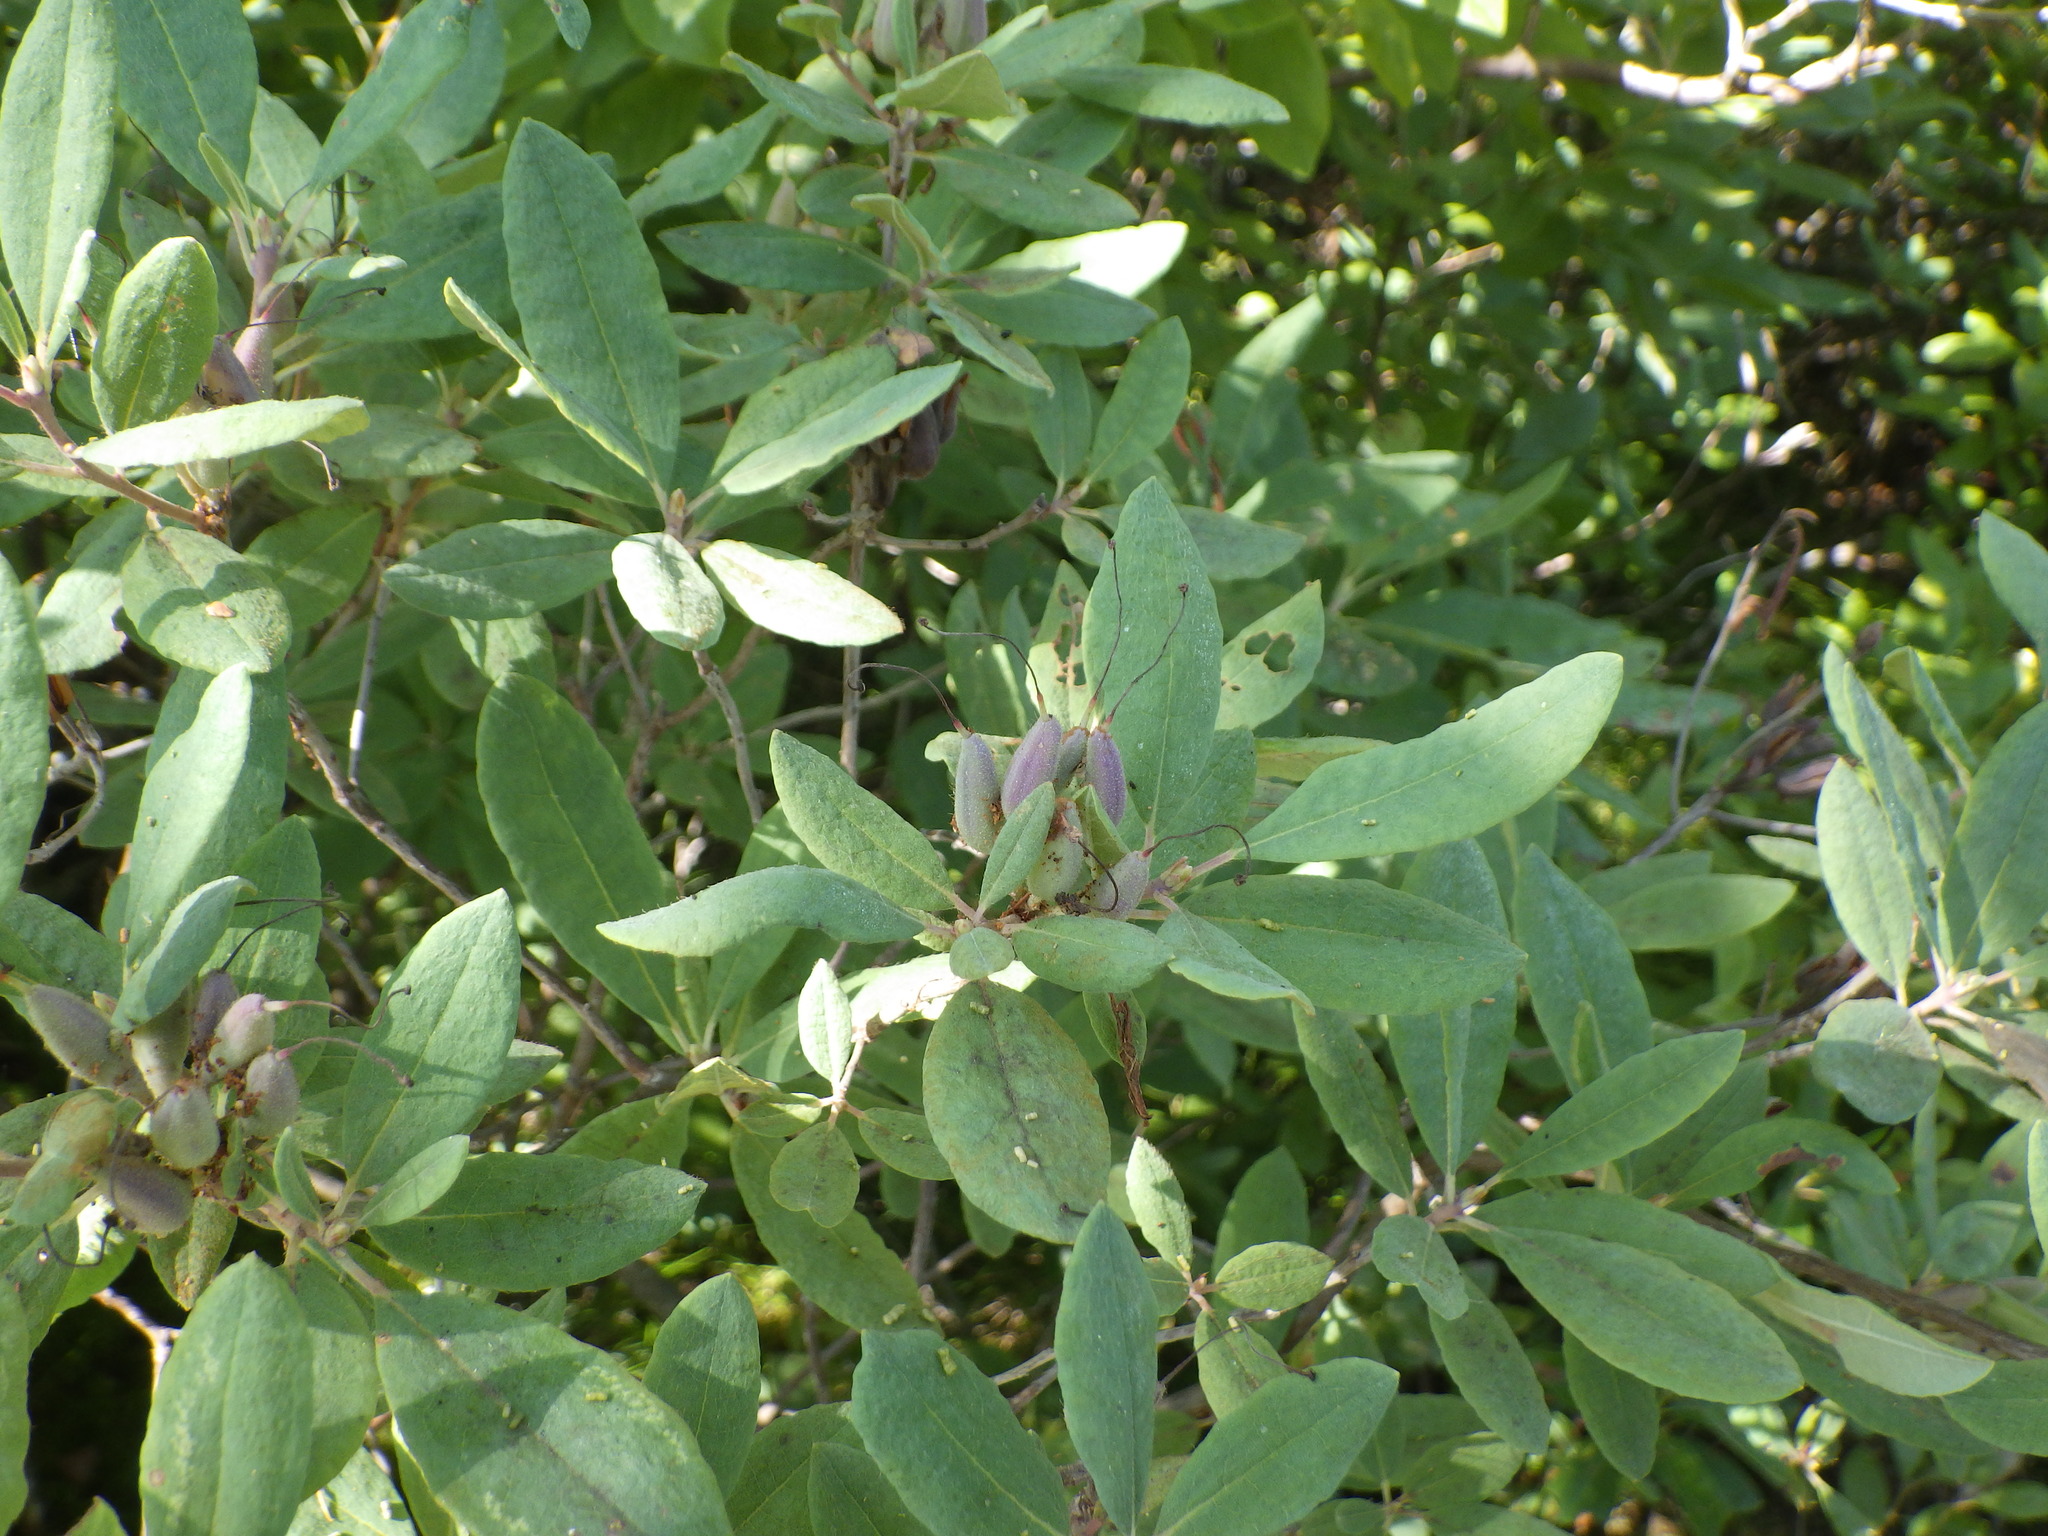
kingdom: Plantae
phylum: Tracheophyta
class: Magnoliopsida
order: Ericales
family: Ericaceae
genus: Rhododendron
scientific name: Rhododendron canadense
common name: Rhodora
